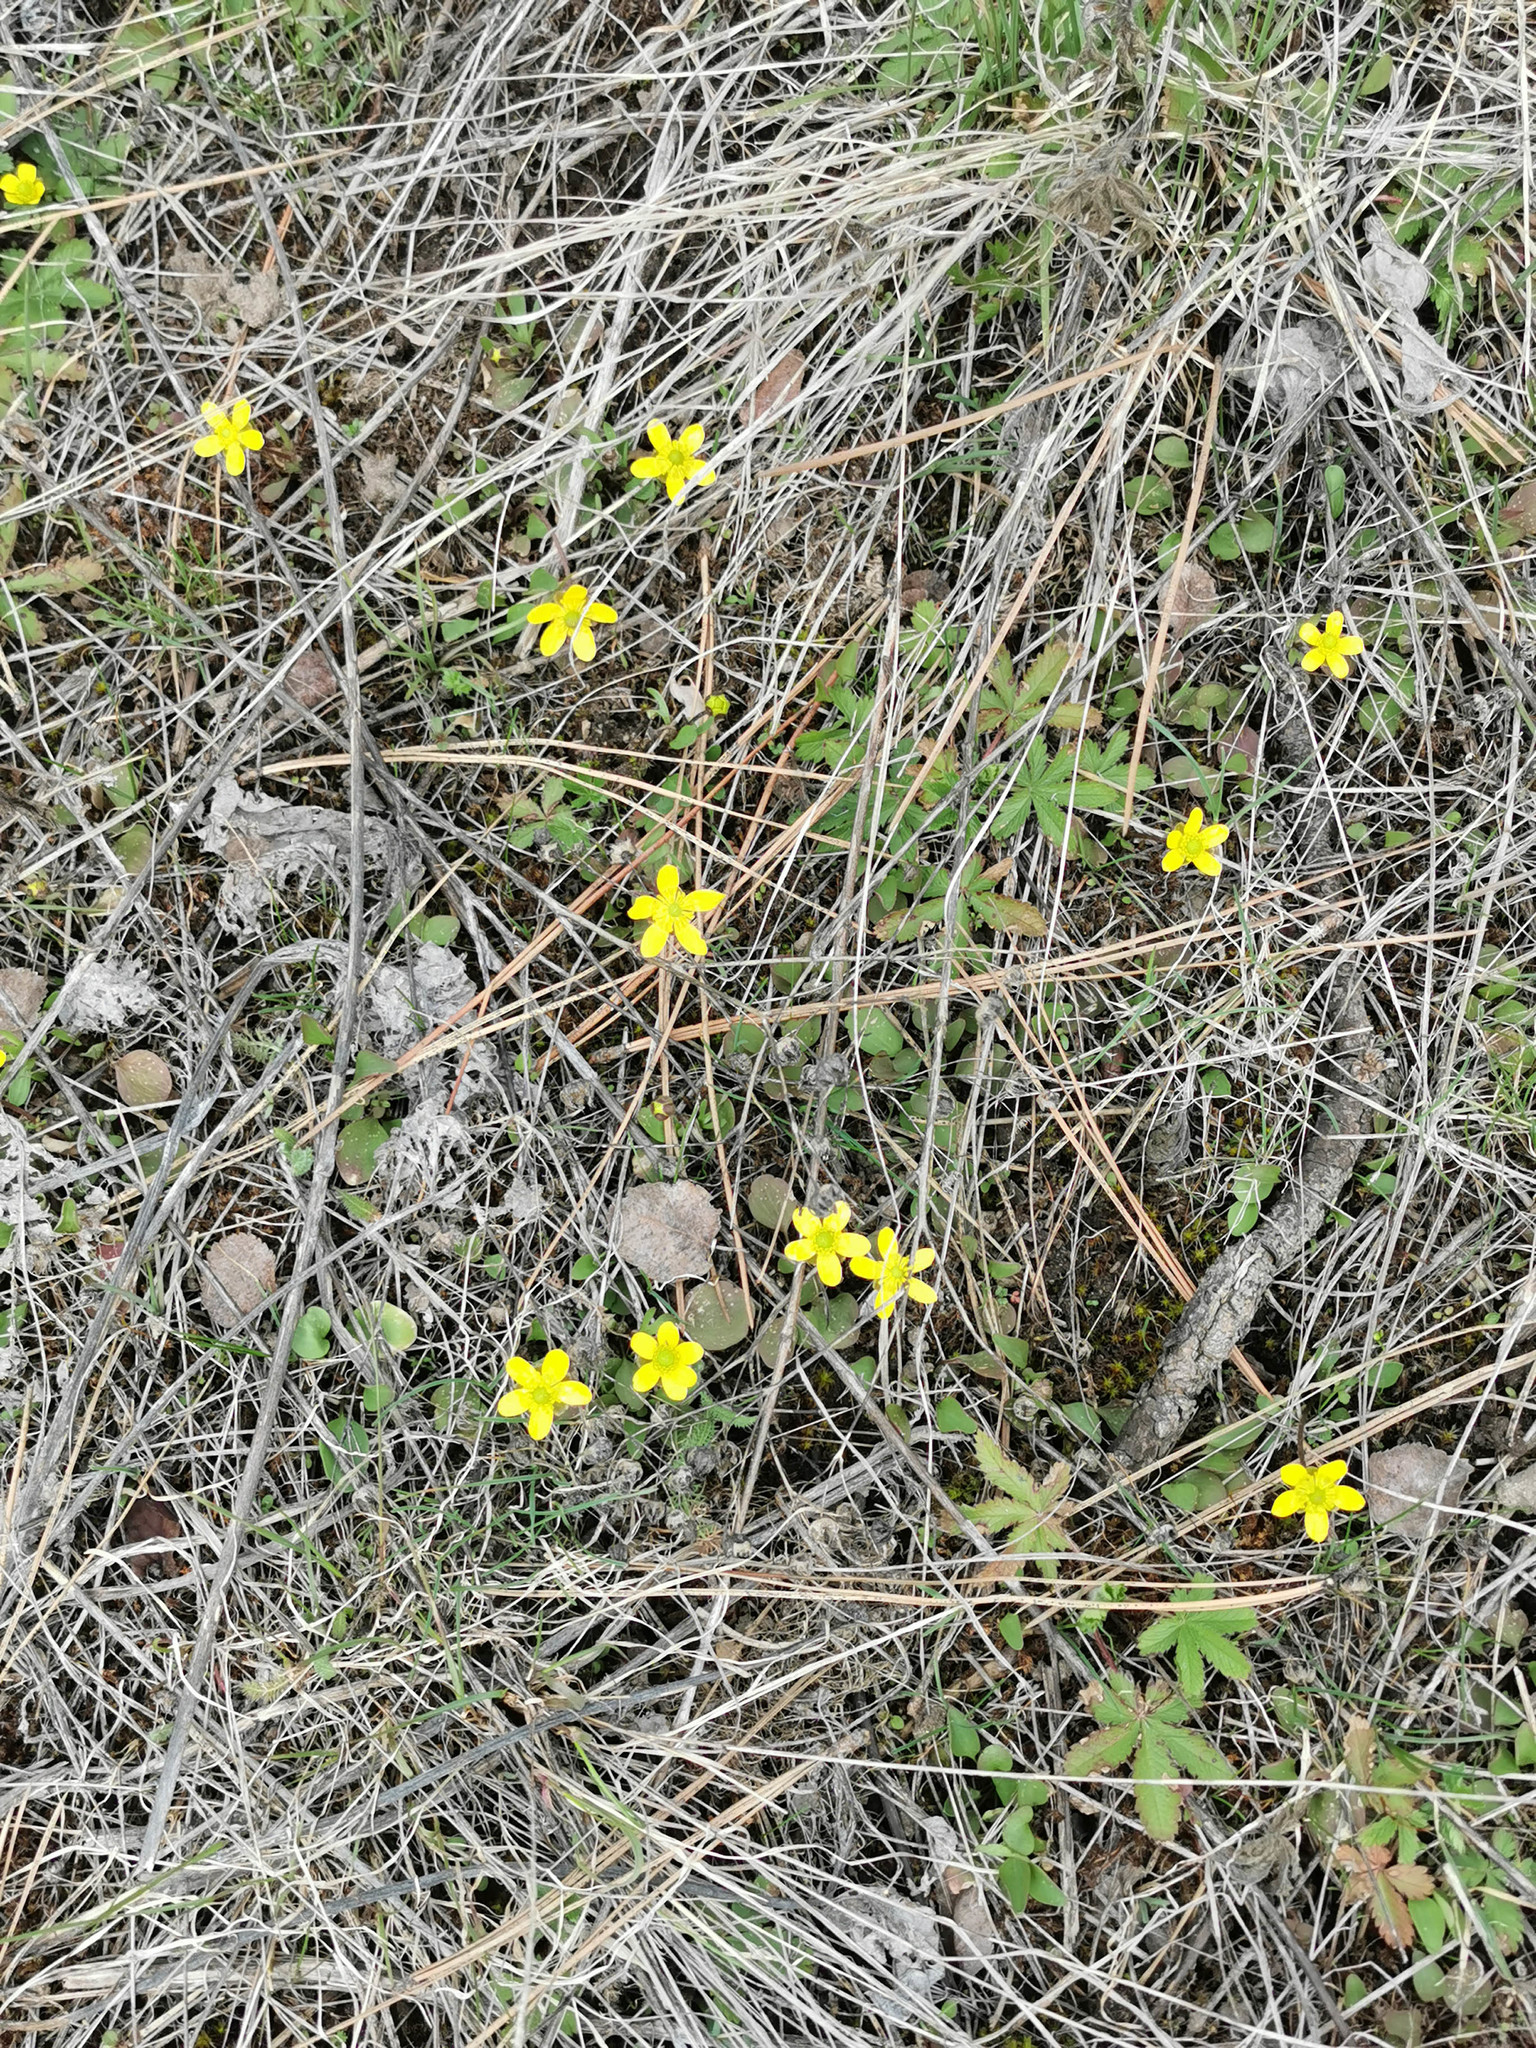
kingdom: Plantae
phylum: Tracheophyta
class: Magnoliopsida
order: Ranunculales
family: Ranunculaceae
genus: Ranunculus
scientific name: Ranunculus glaberrimus
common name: Sagebrush buttercup
